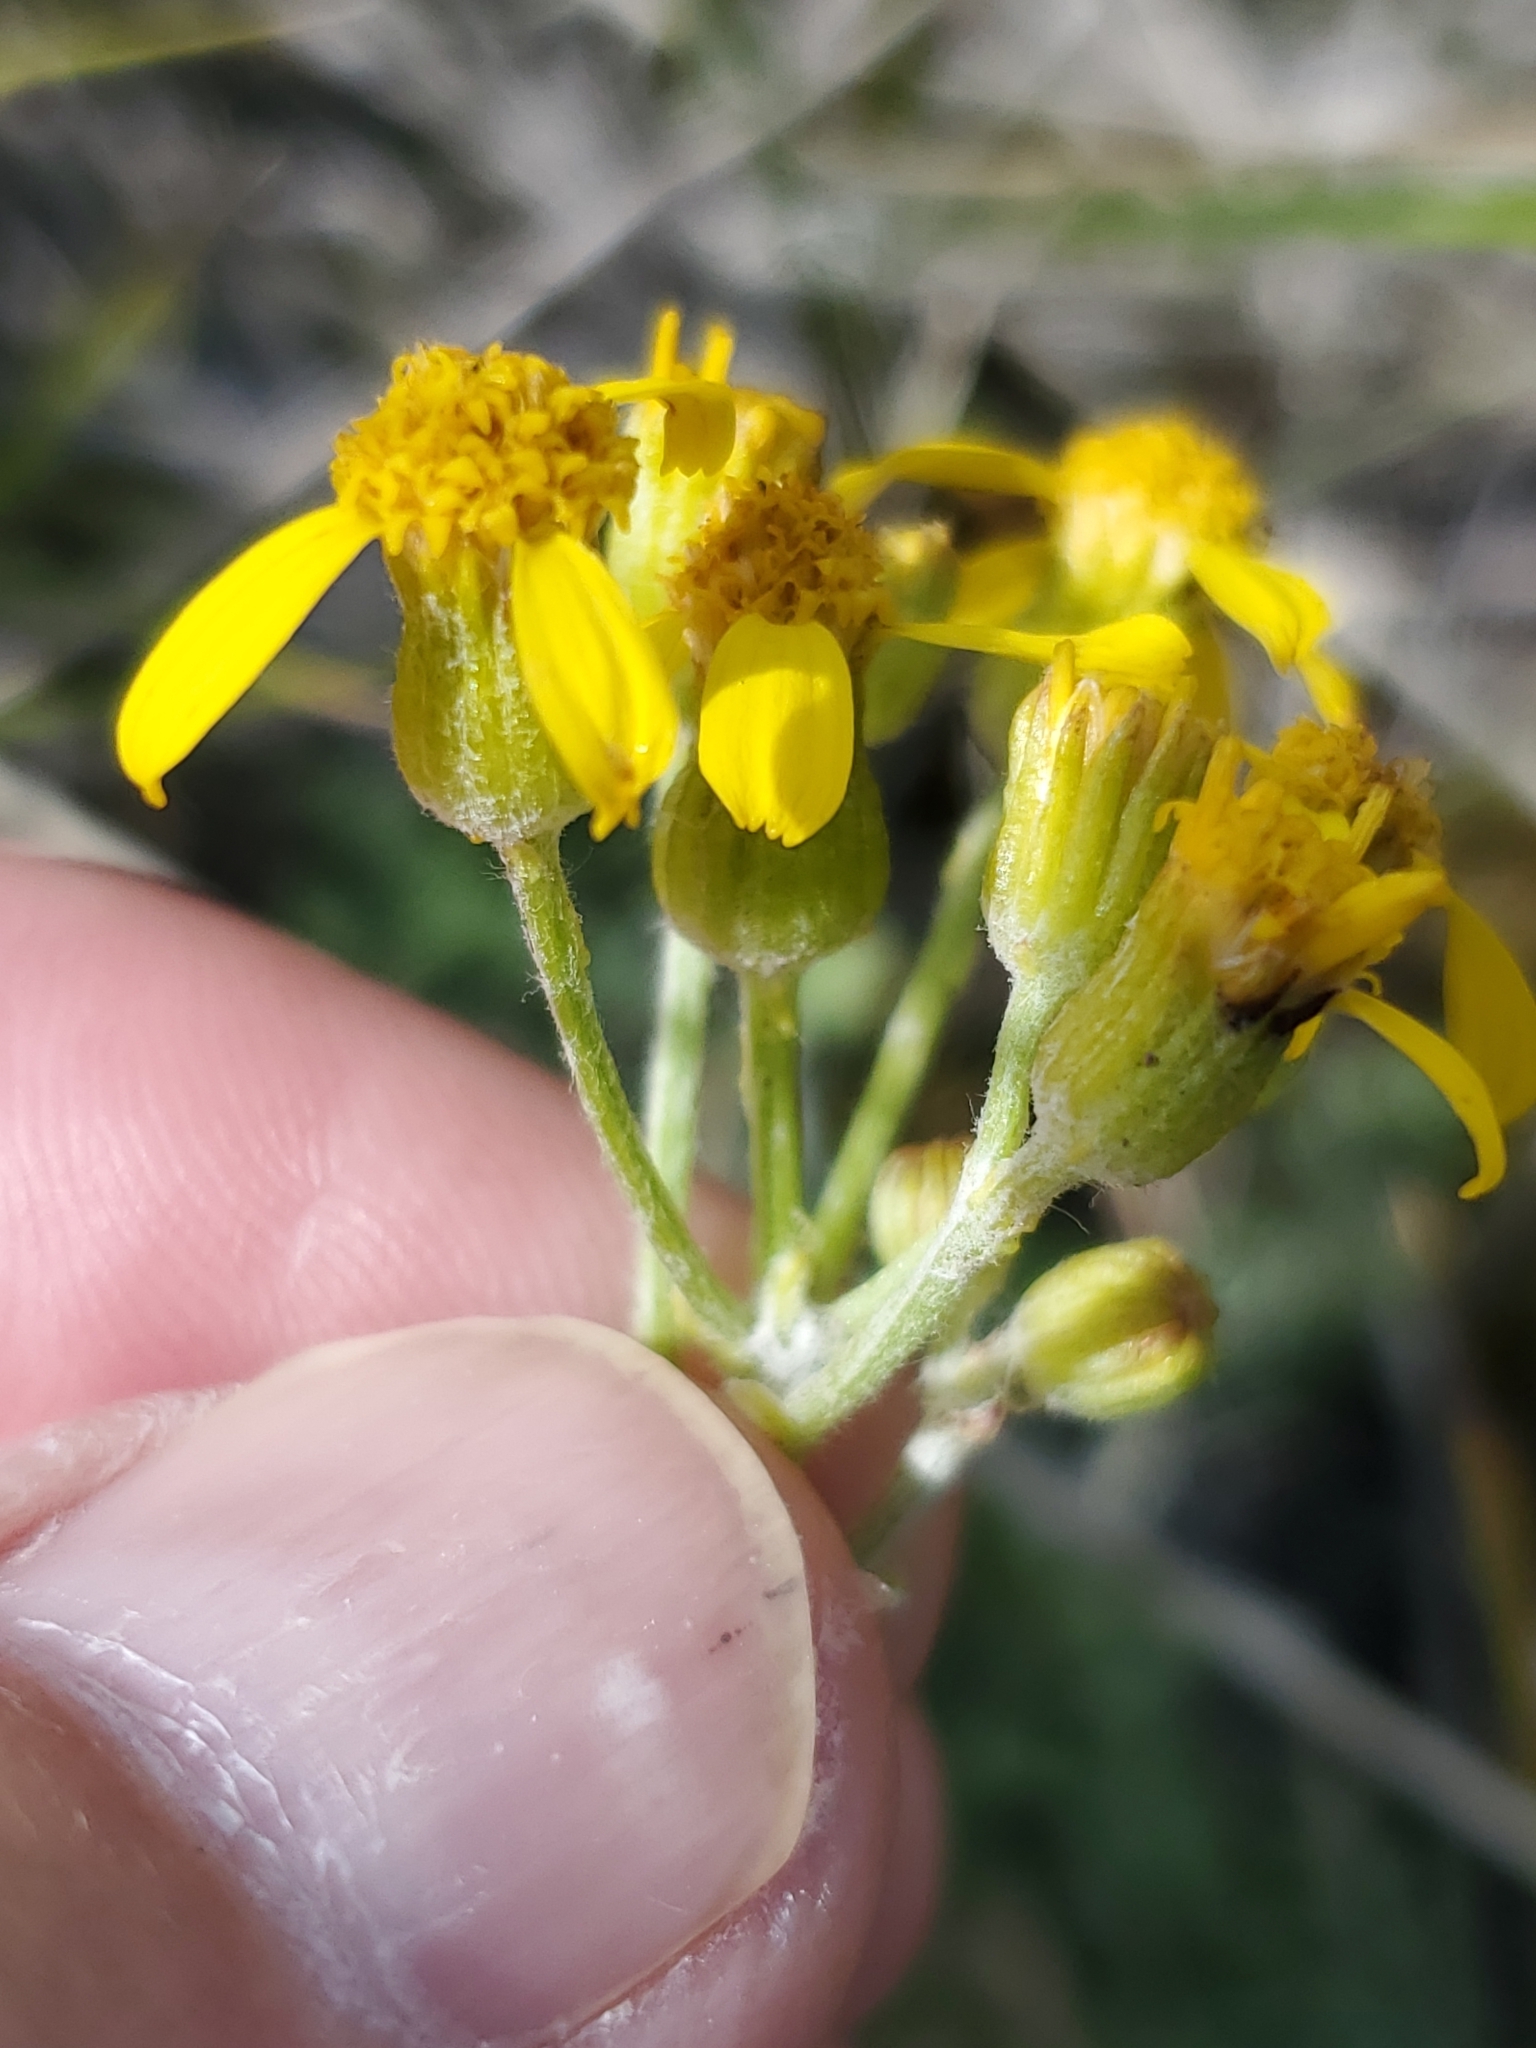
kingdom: Plantae
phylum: Tracheophyta
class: Magnoliopsida
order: Asterales
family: Asteraceae
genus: Packera
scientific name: Packera fendleri
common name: Notch-leaf butterweed
